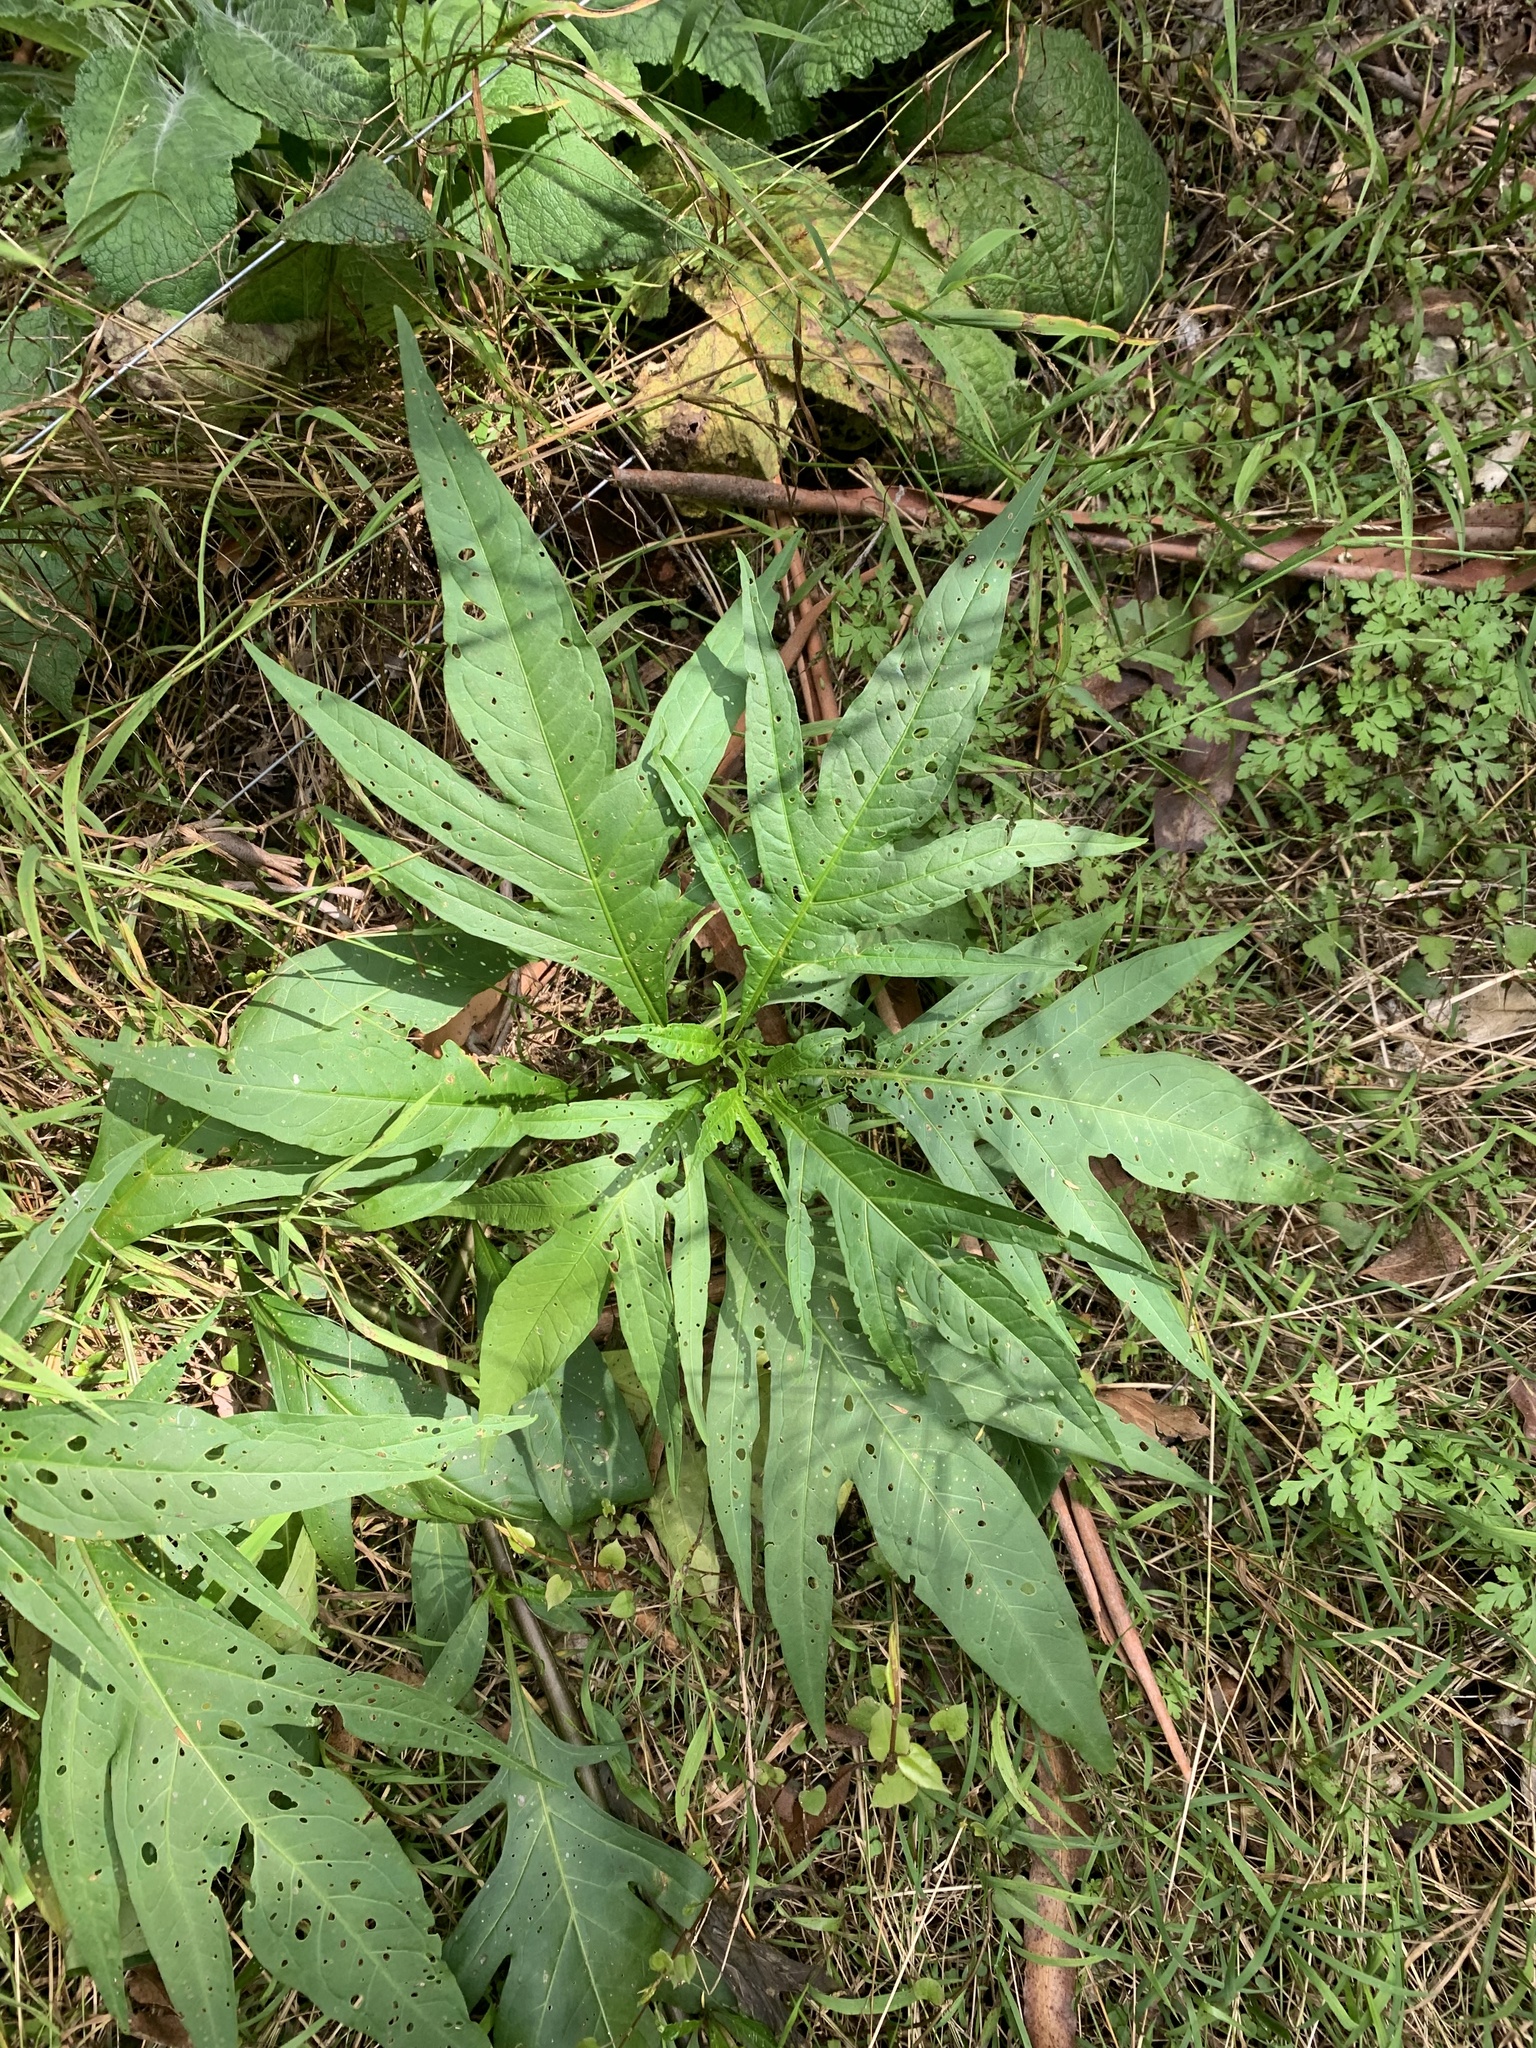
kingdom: Plantae
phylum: Tracheophyta
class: Magnoliopsida
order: Solanales
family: Solanaceae
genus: Solanum
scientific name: Solanum
